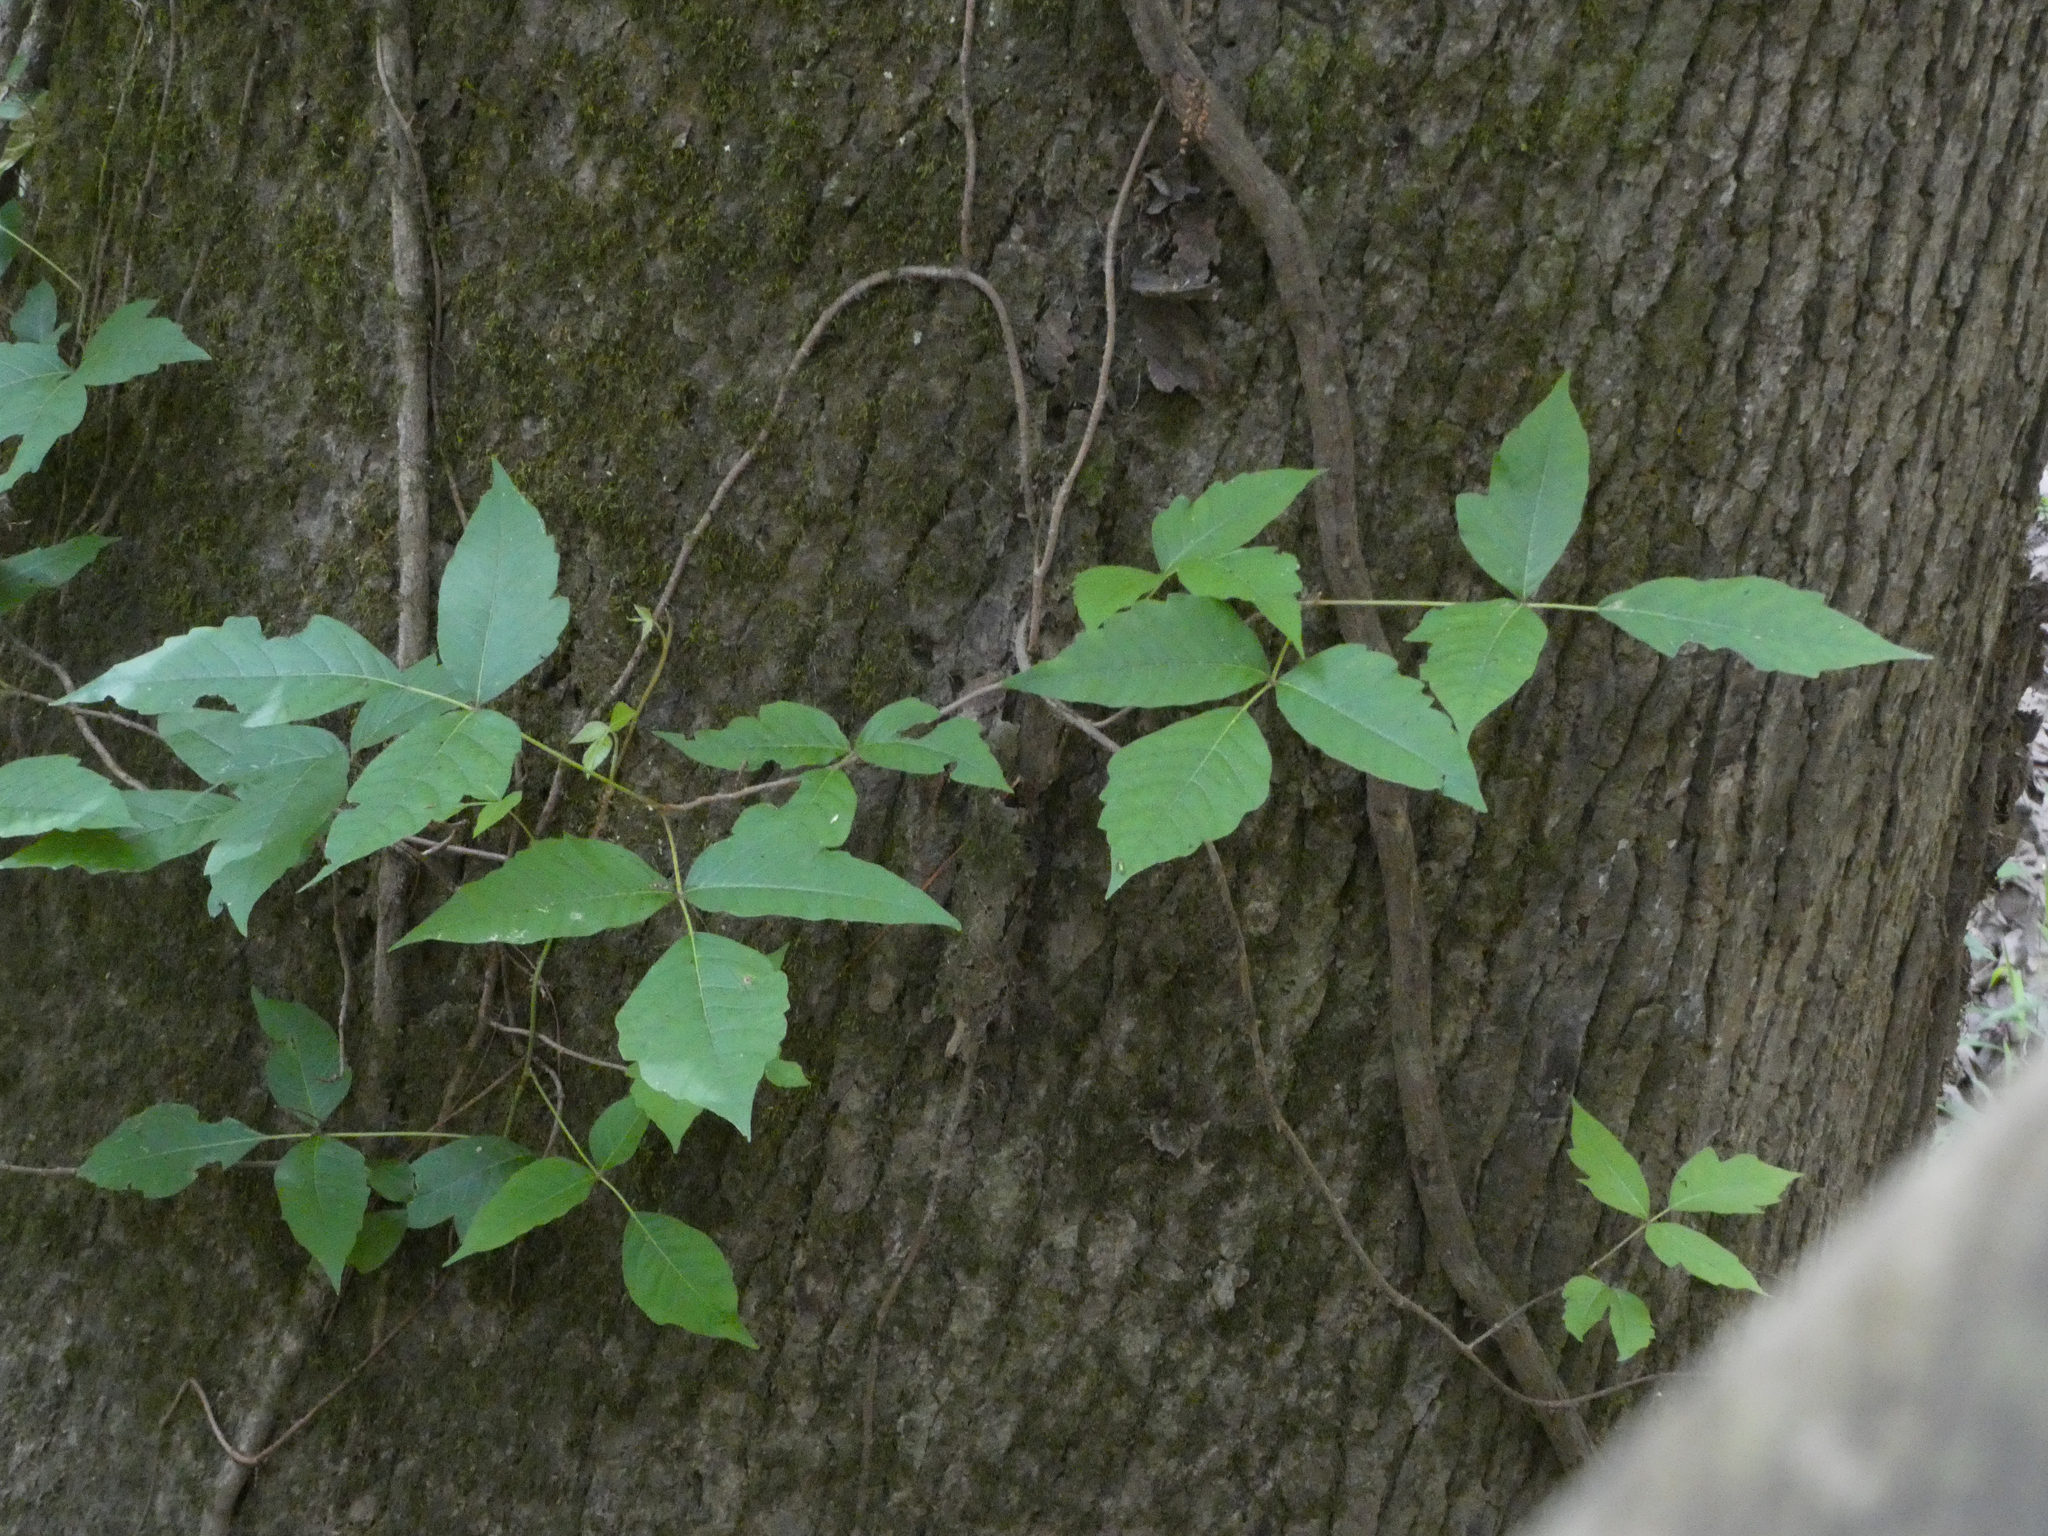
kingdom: Plantae
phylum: Tracheophyta
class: Magnoliopsida
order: Sapindales
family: Anacardiaceae
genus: Toxicodendron
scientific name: Toxicodendron radicans
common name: Poison ivy
